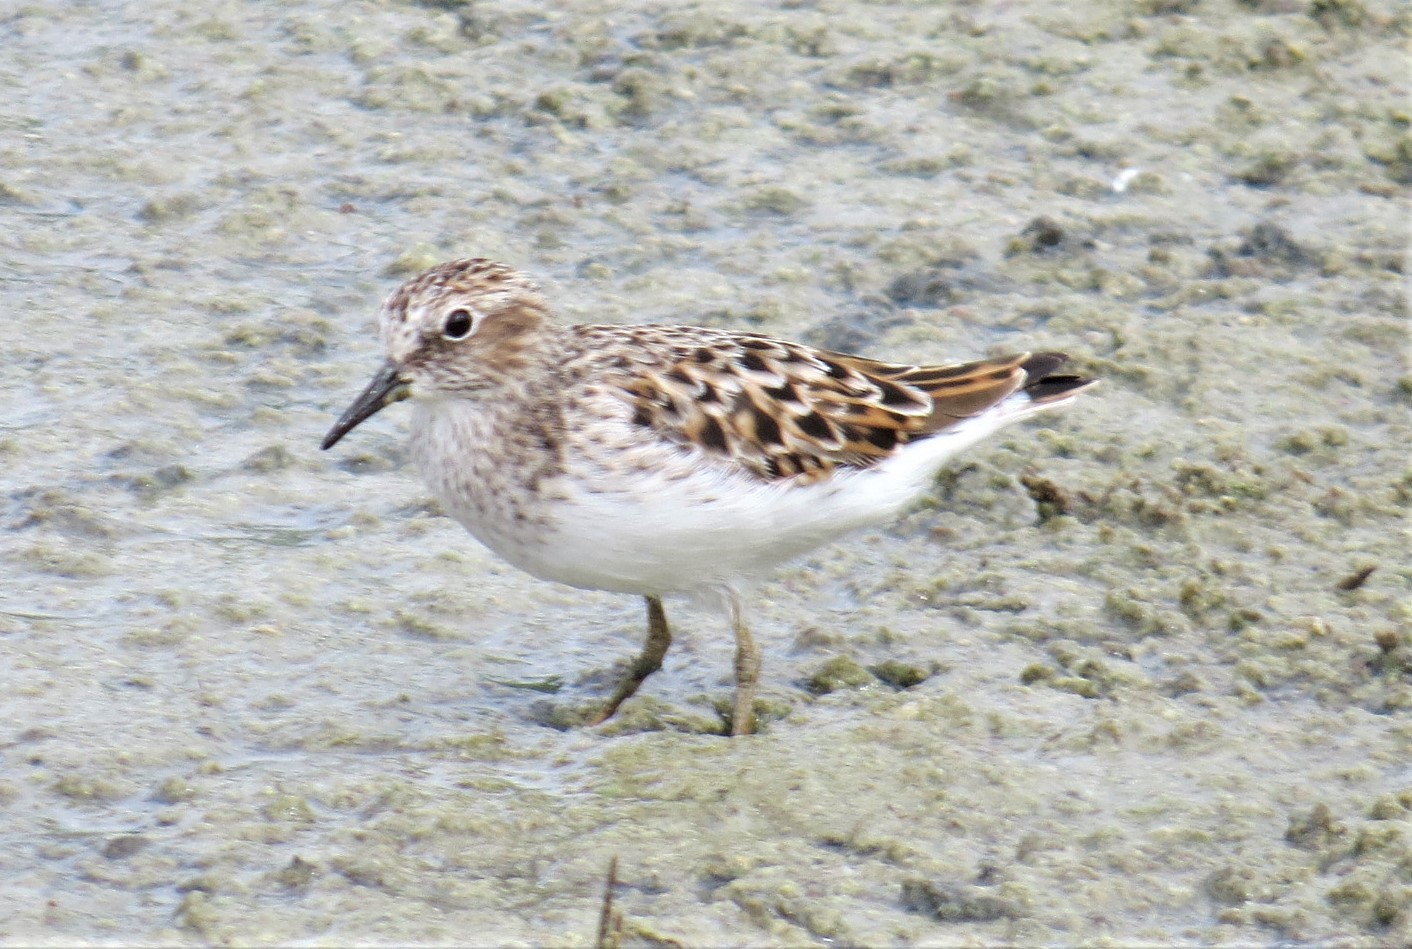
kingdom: Animalia
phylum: Chordata
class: Aves
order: Charadriiformes
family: Scolopacidae
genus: Calidris
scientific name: Calidris minutilla
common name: Least sandpiper
